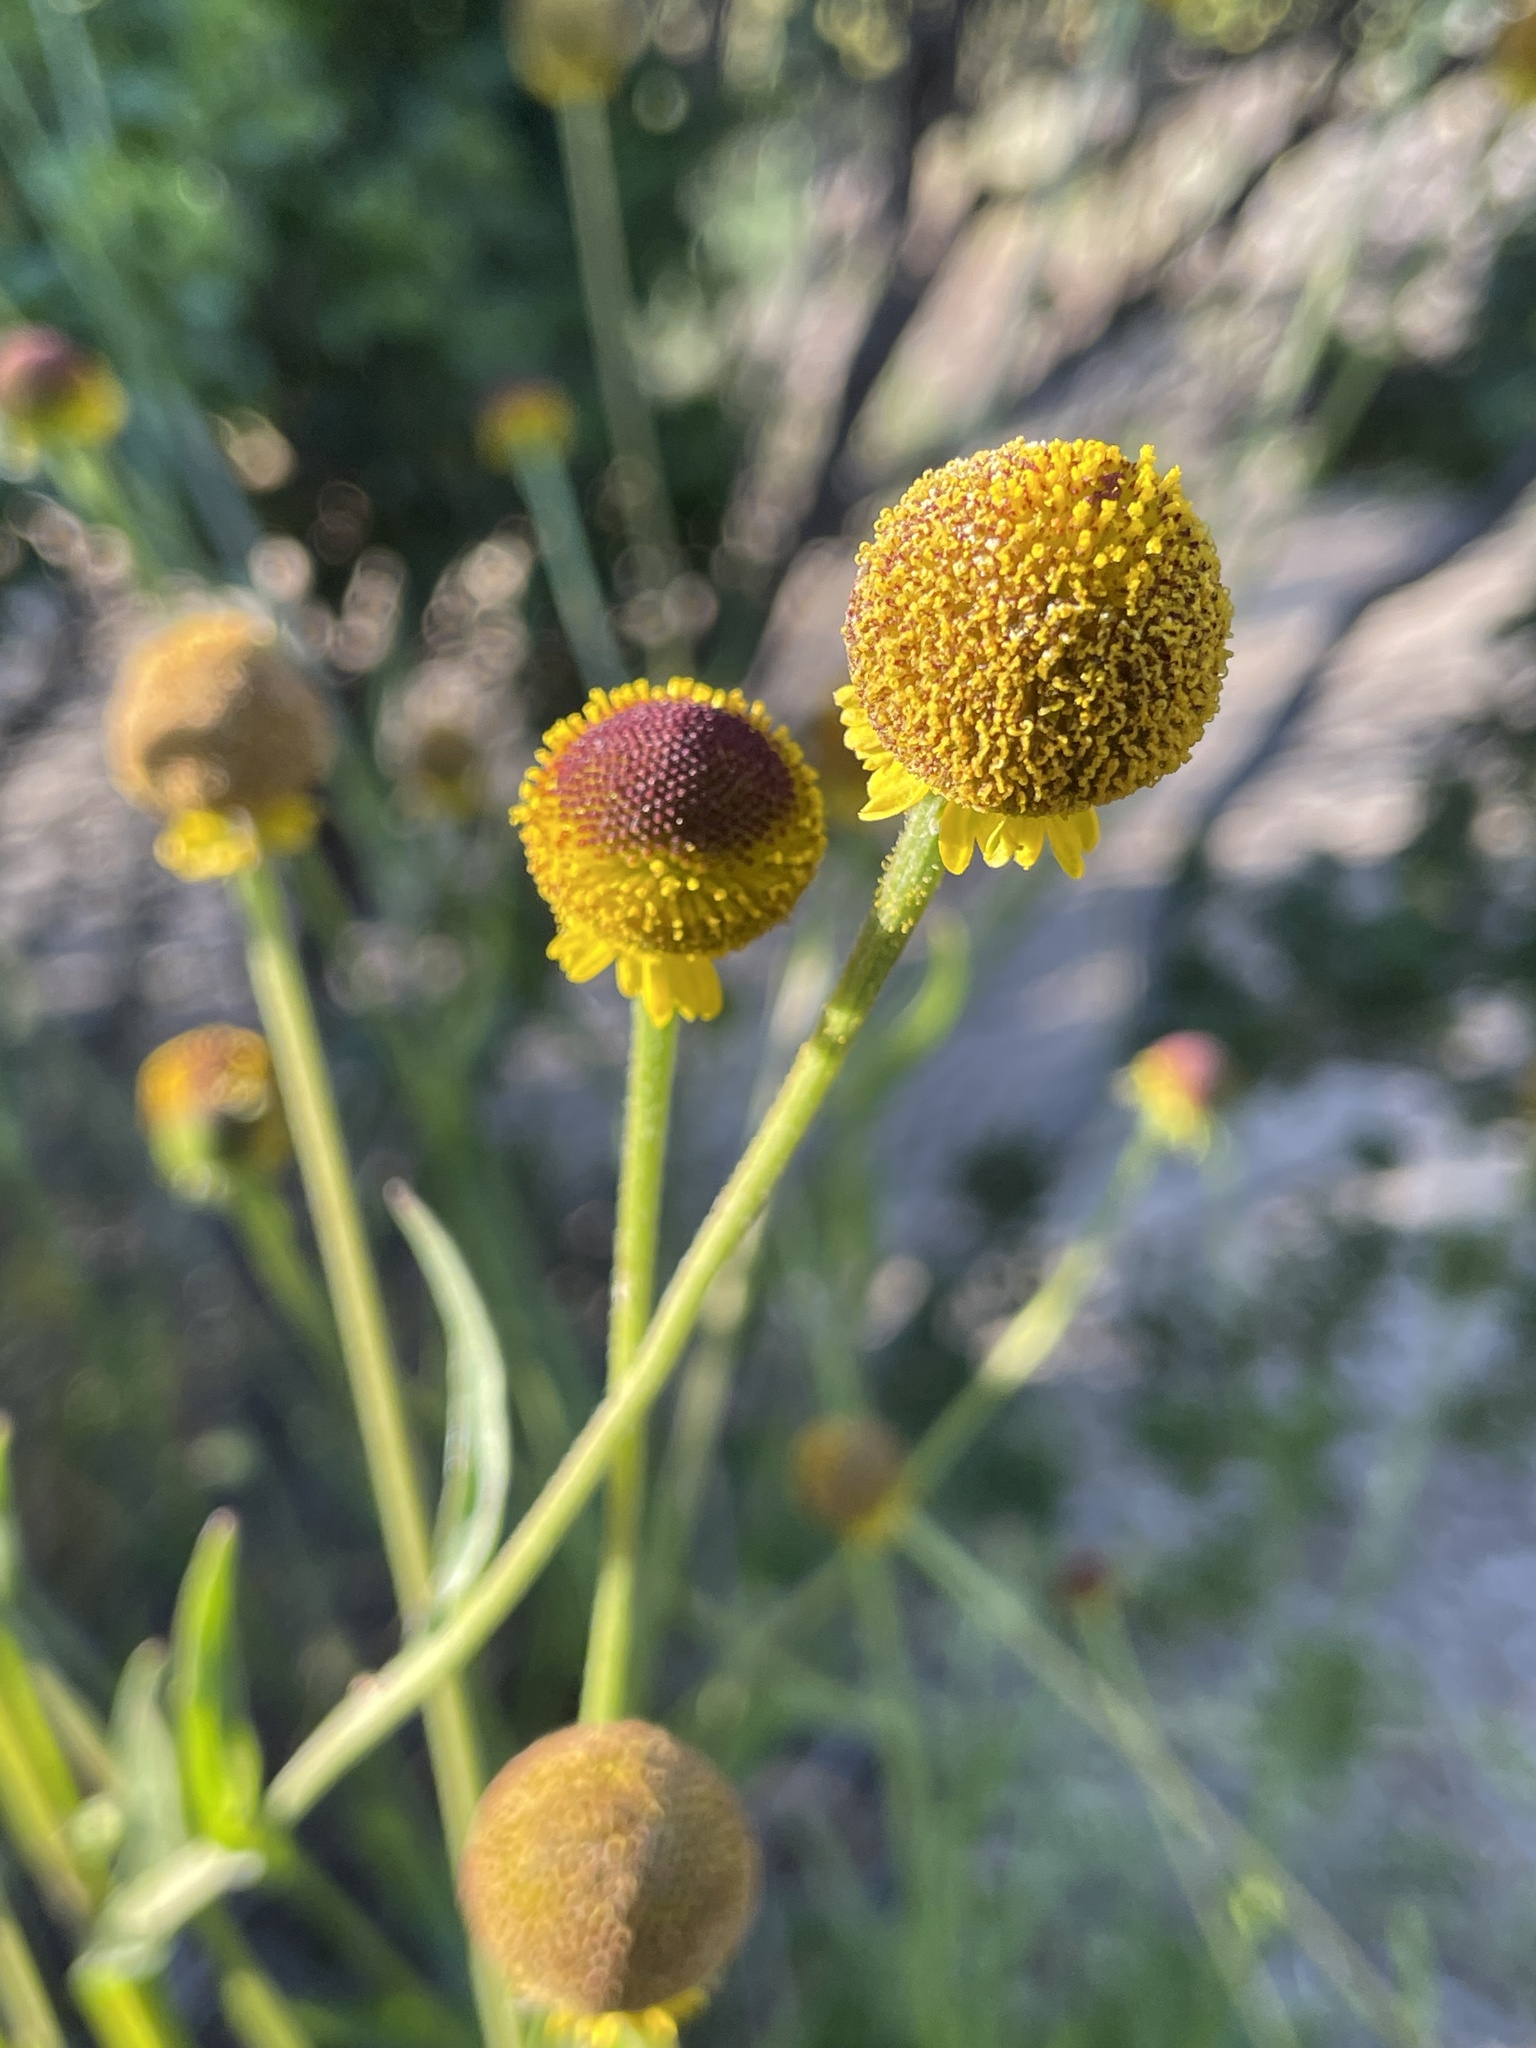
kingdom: Plantae
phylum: Tracheophyta
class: Magnoliopsida
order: Asterales
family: Asteraceae
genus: Helenium
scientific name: Helenium puberulum
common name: Sneezewort
